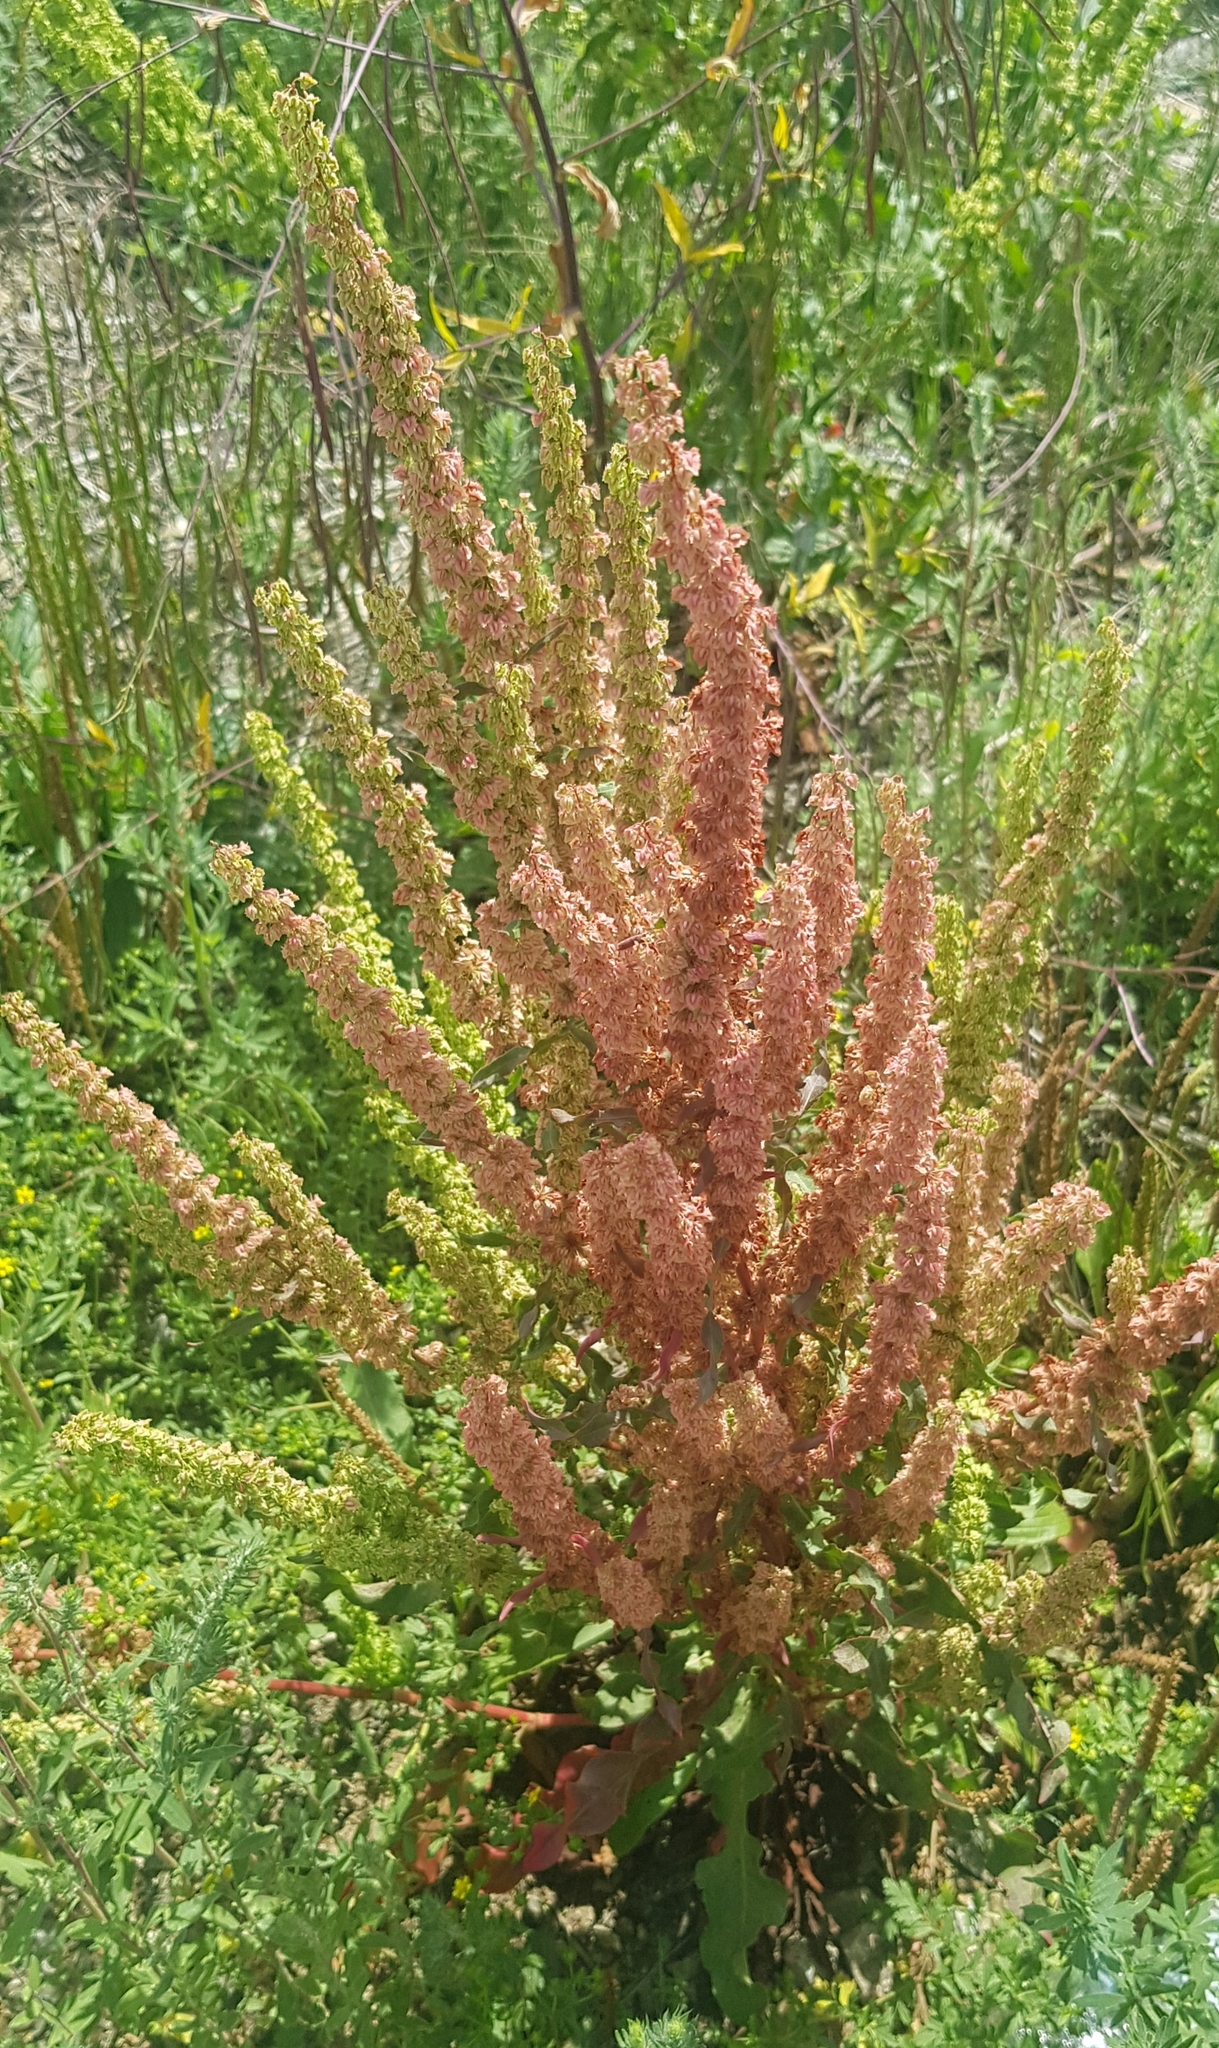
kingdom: Plantae
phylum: Tracheophyta
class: Magnoliopsida
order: Caryophyllales
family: Polygonaceae
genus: Rumex
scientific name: Rumex crispus
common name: Curled dock
